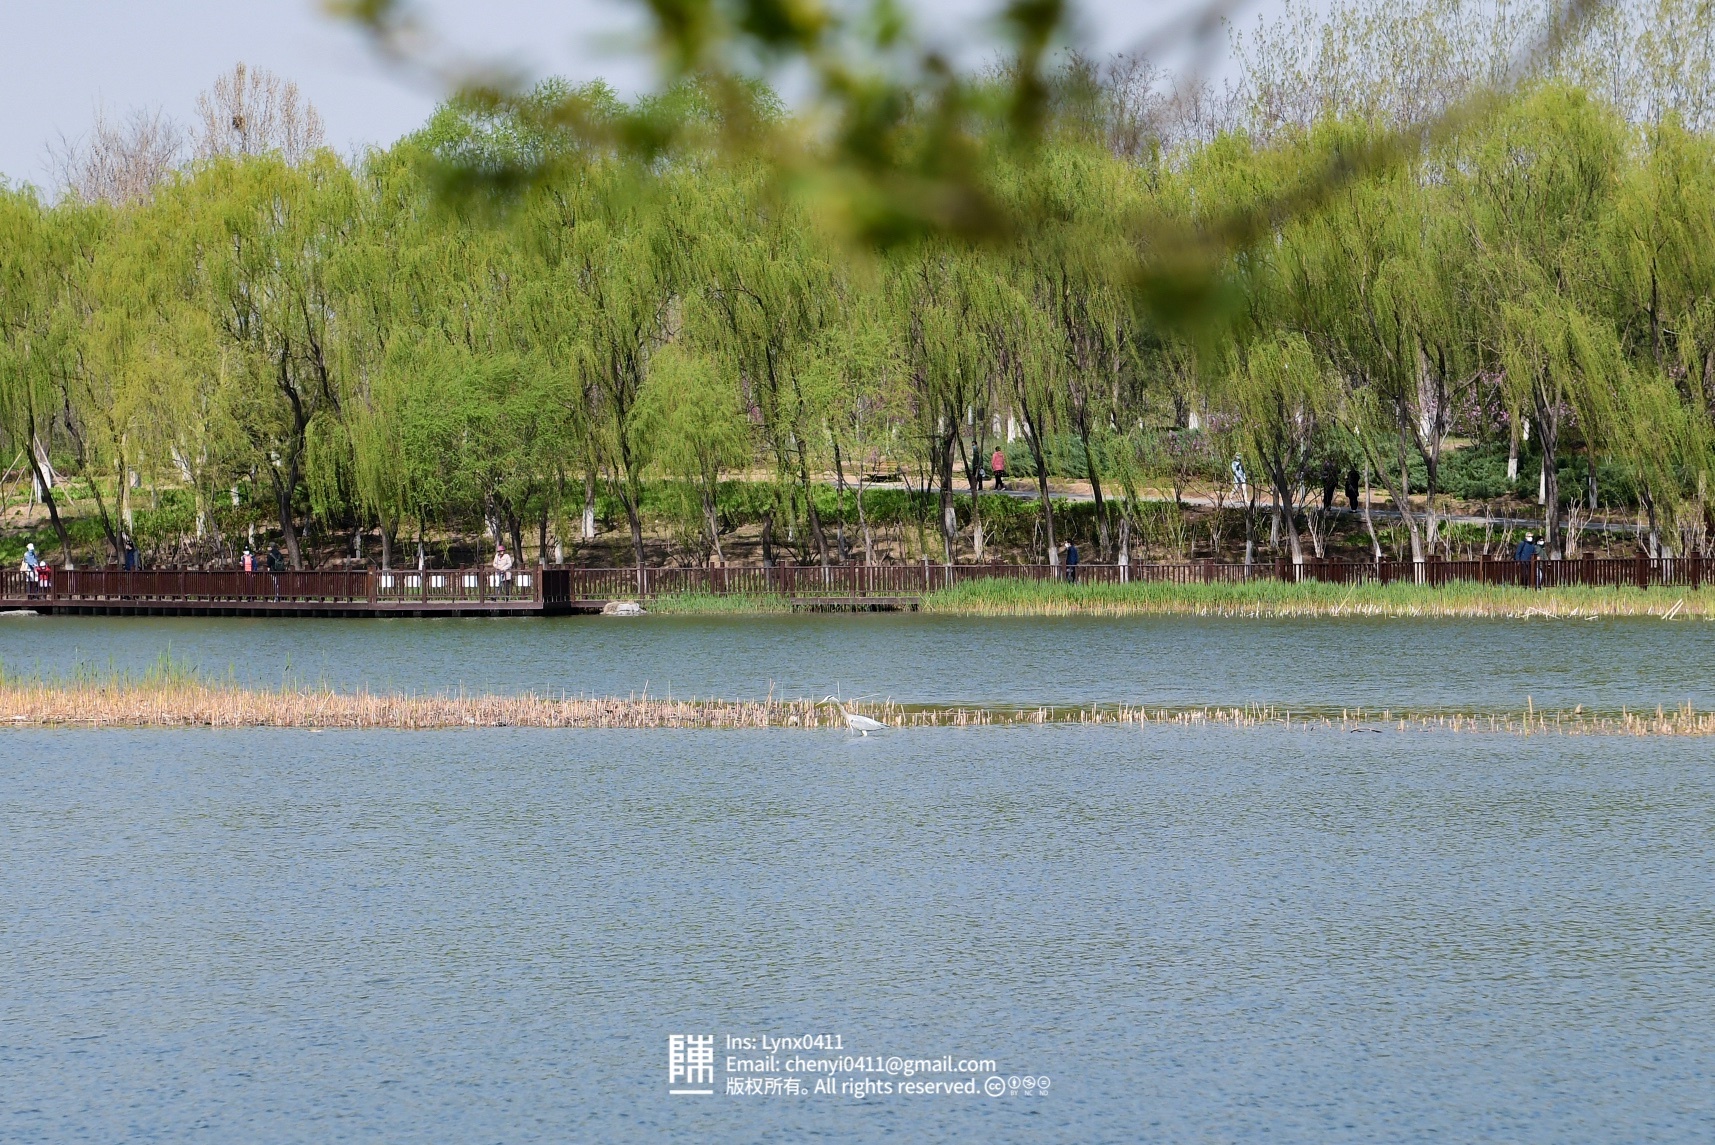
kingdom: Animalia
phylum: Chordata
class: Aves
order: Pelecaniformes
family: Ardeidae
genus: Ardea
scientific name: Ardea cinerea
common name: Grey heron
